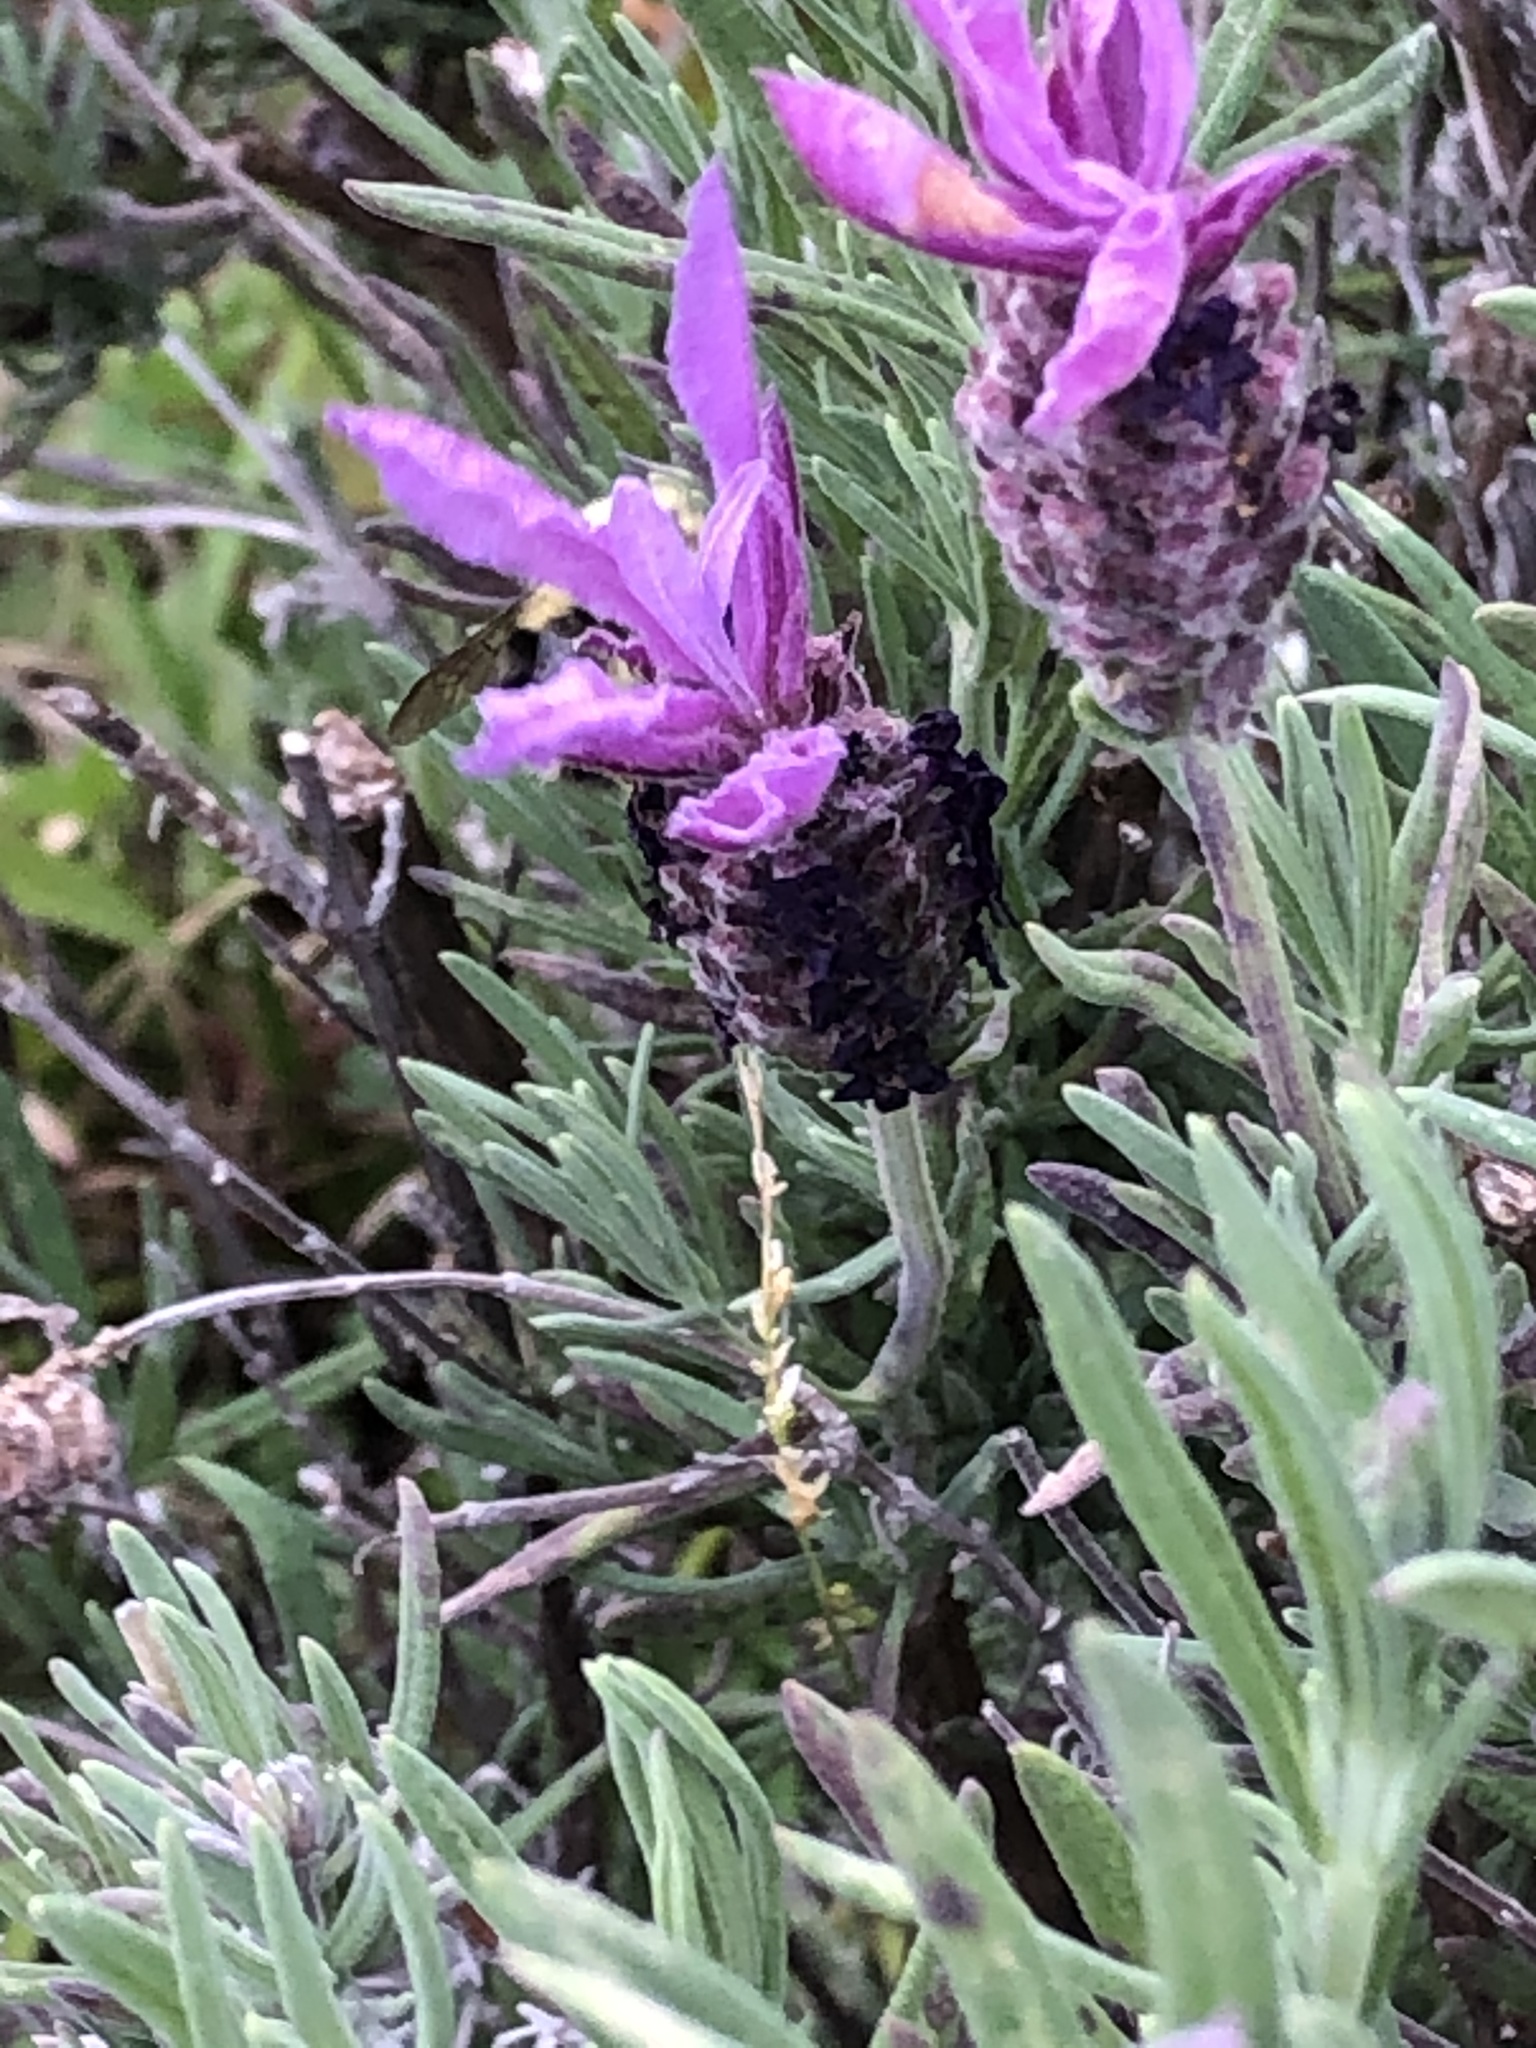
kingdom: Animalia
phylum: Arthropoda
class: Insecta
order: Coleoptera
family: Staphylinidae
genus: Heterosilpha
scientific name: Heterosilpha ramosa
